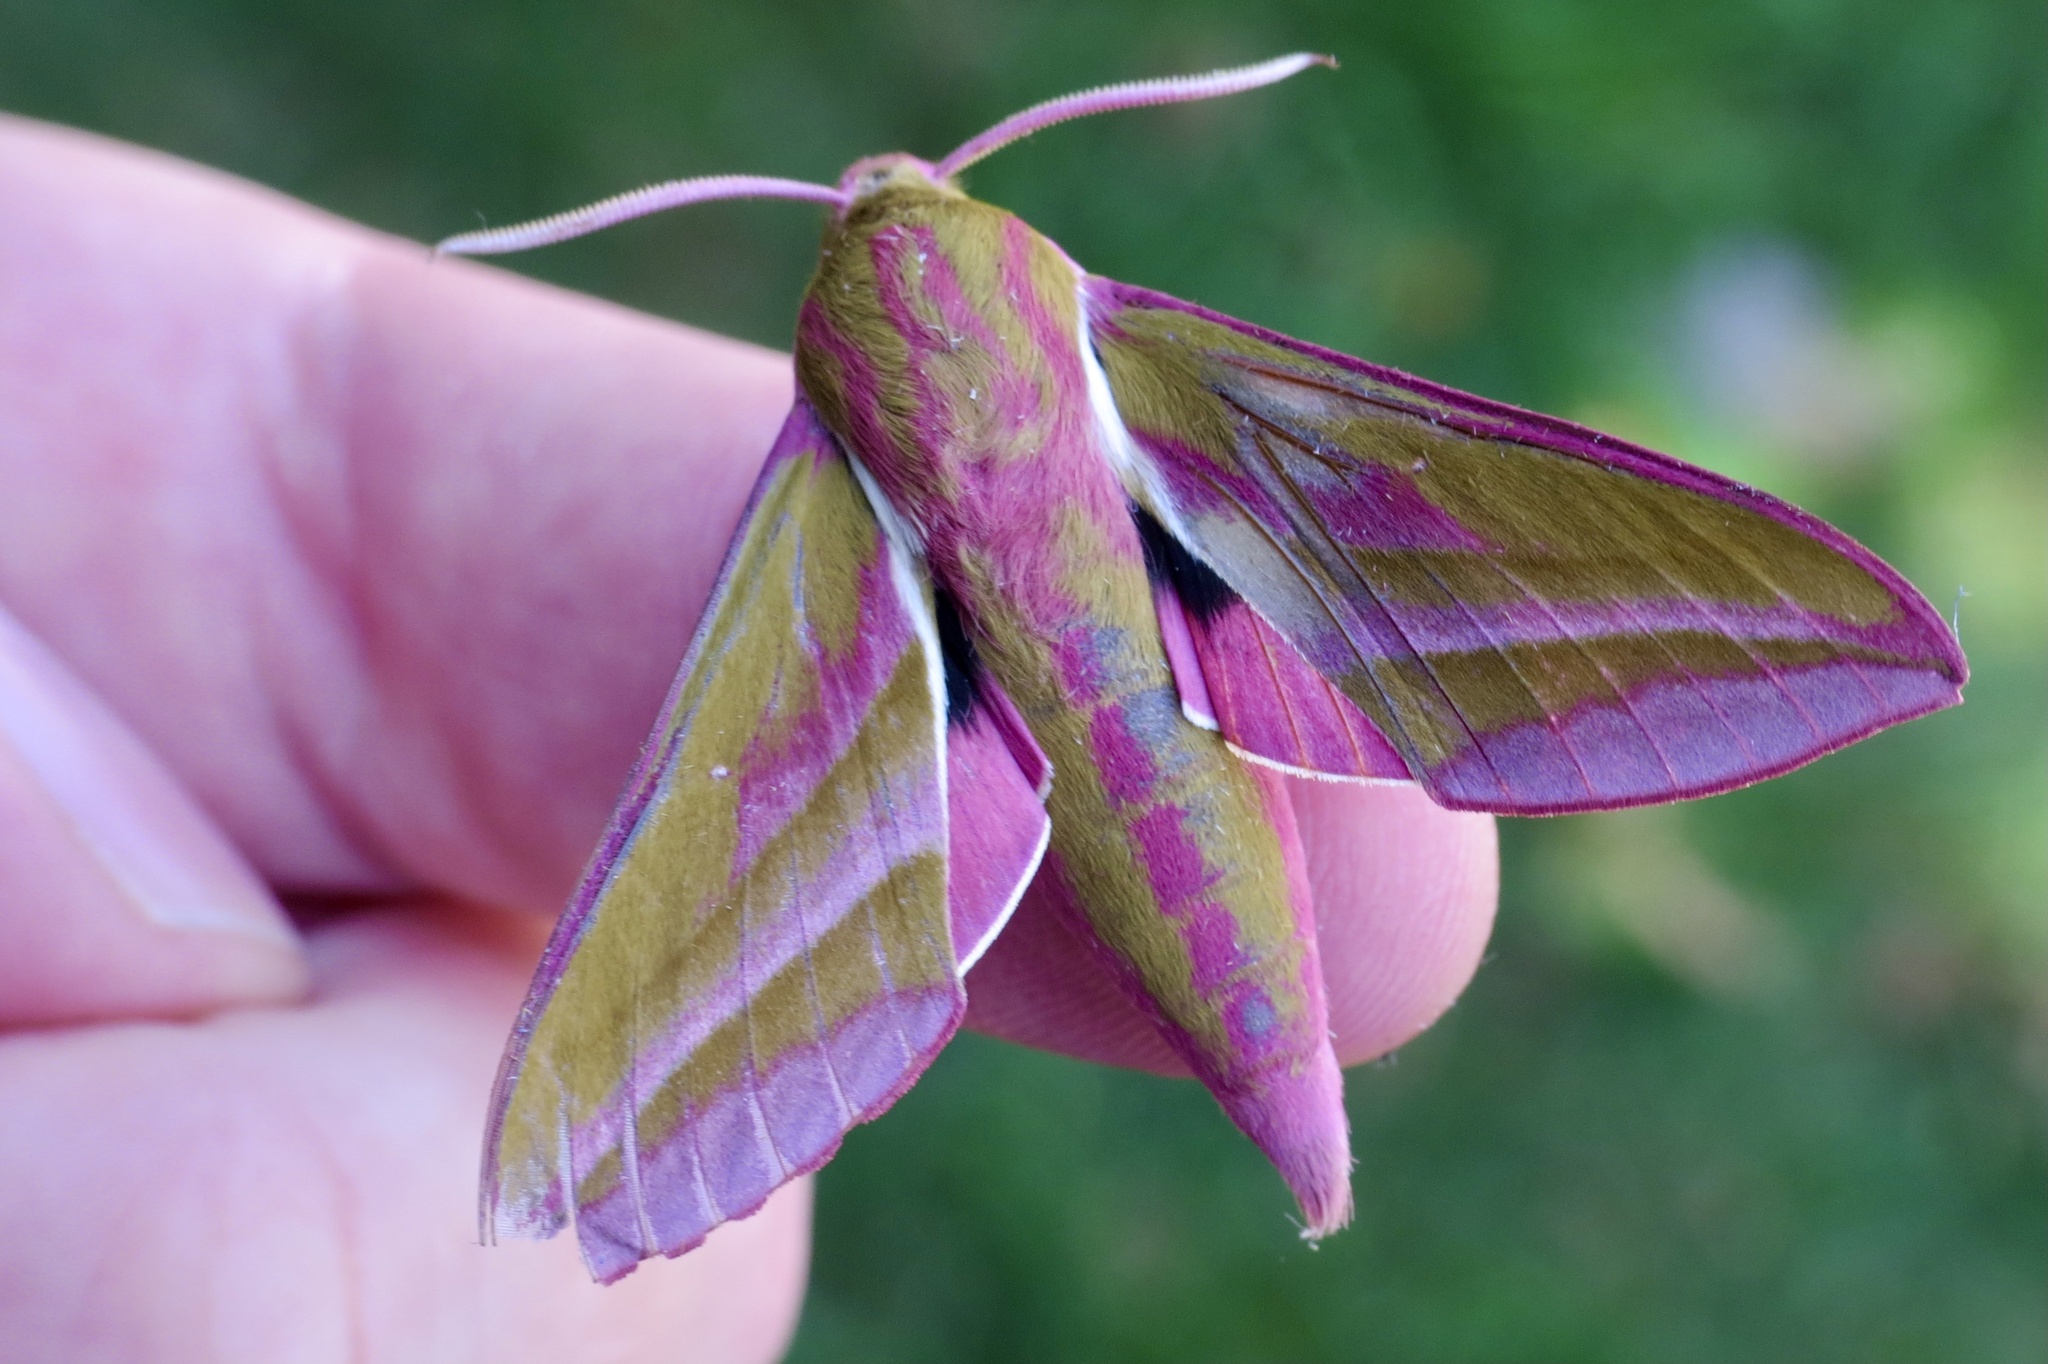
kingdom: Animalia
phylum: Arthropoda
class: Insecta
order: Lepidoptera
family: Sphingidae
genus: Deilephila
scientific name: Deilephila elpenor
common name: Elephant hawk-moth
